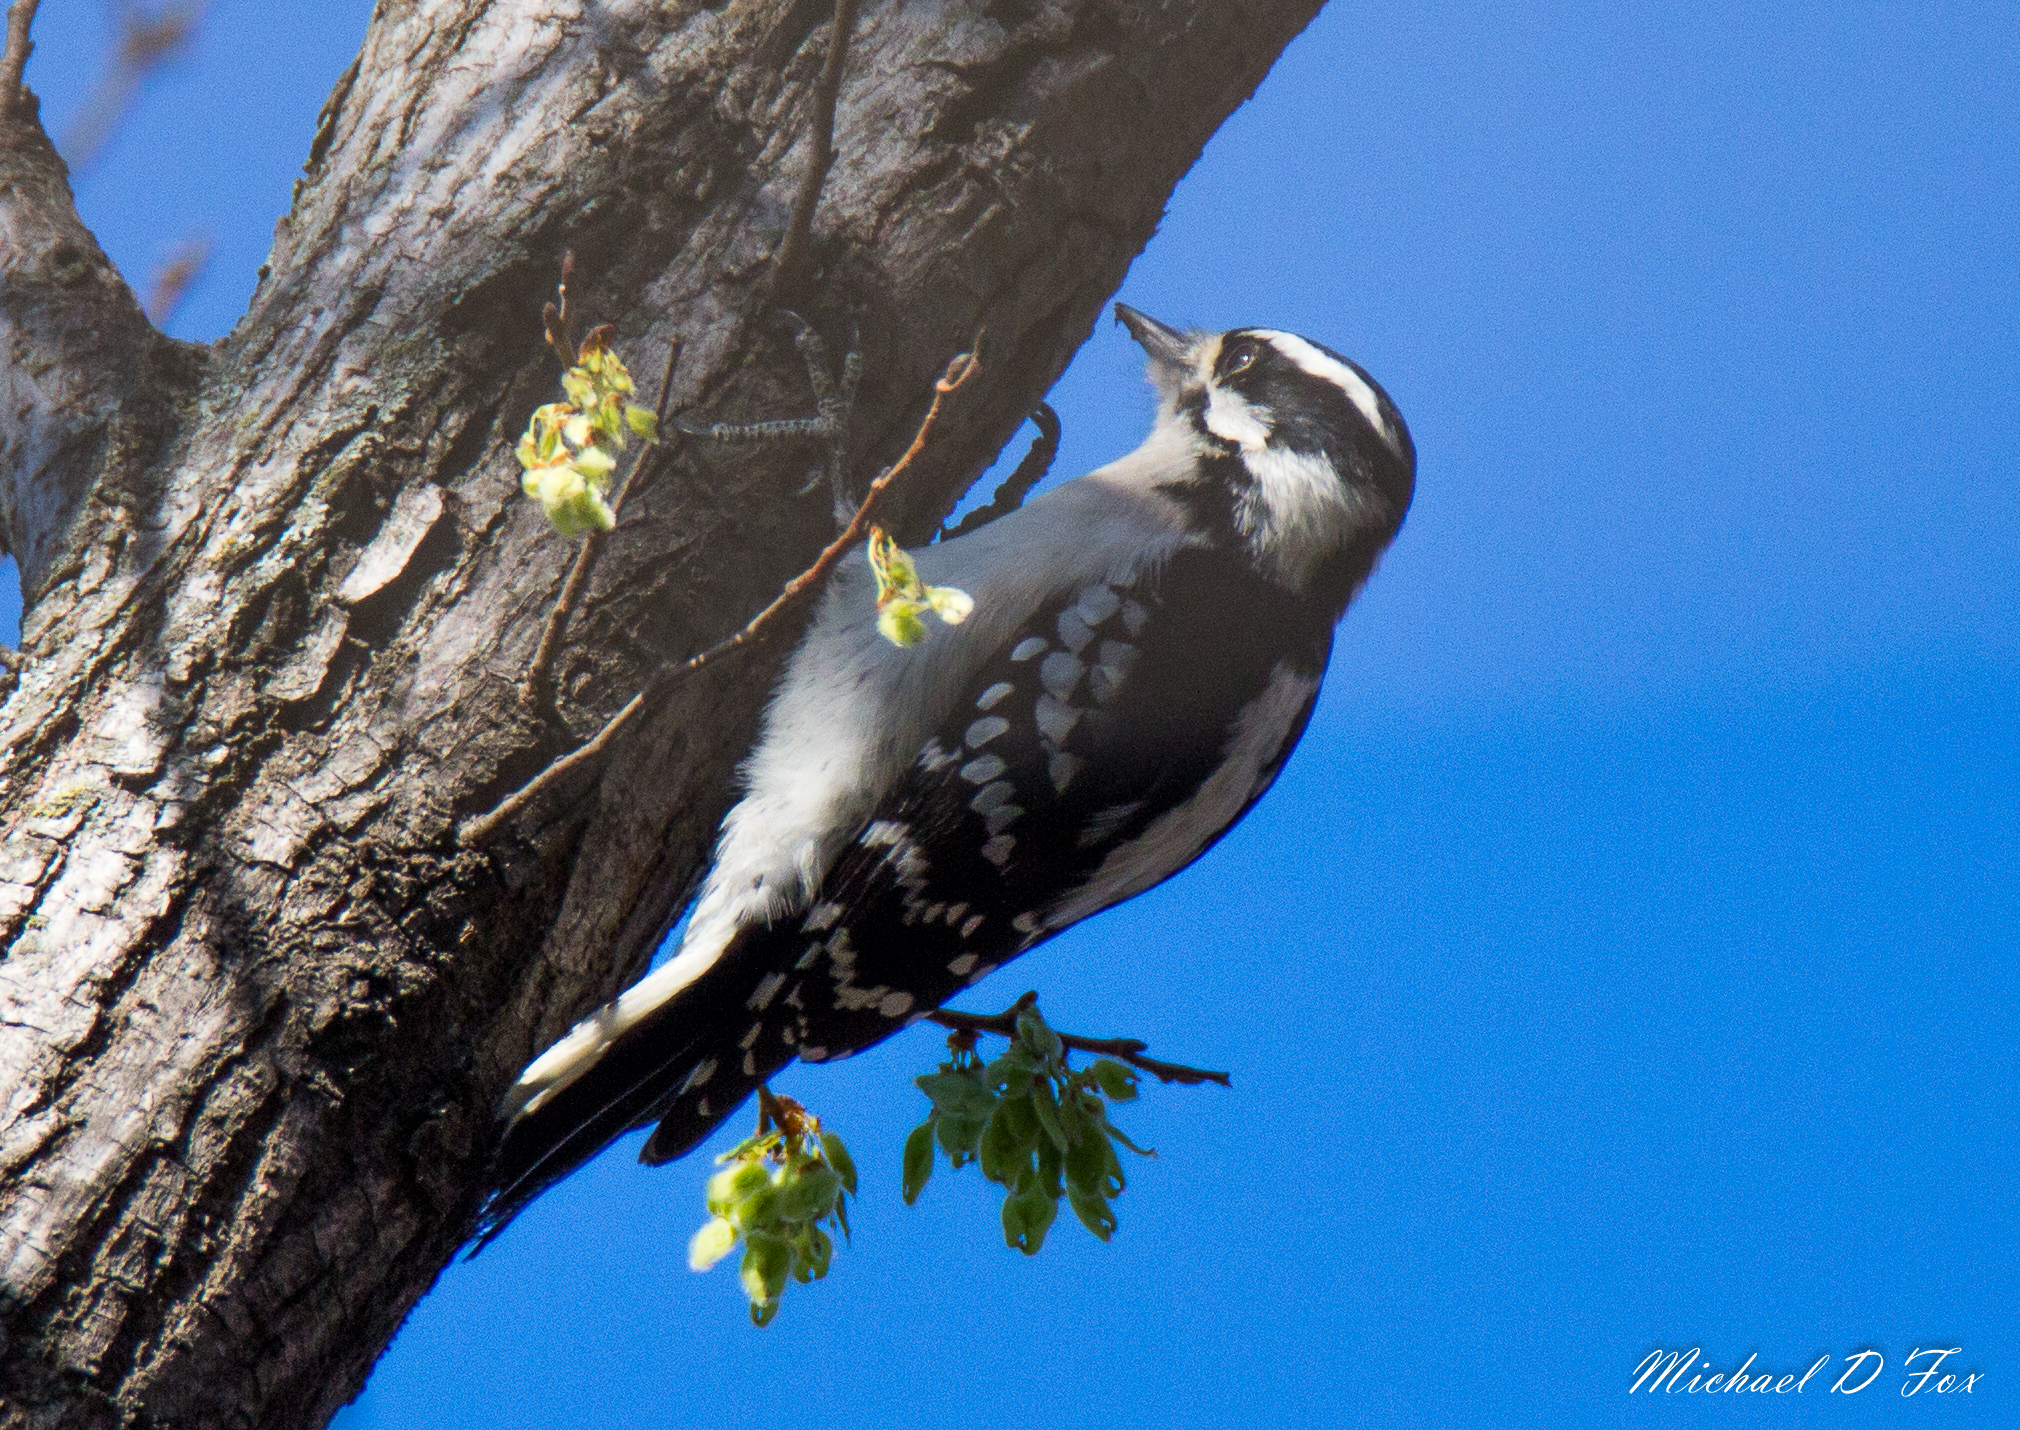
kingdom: Animalia
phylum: Chordata
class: Aves
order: Piciformes
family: Picidae
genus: Dryobates
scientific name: Dryobates pubescens
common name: Downy woodpecker
